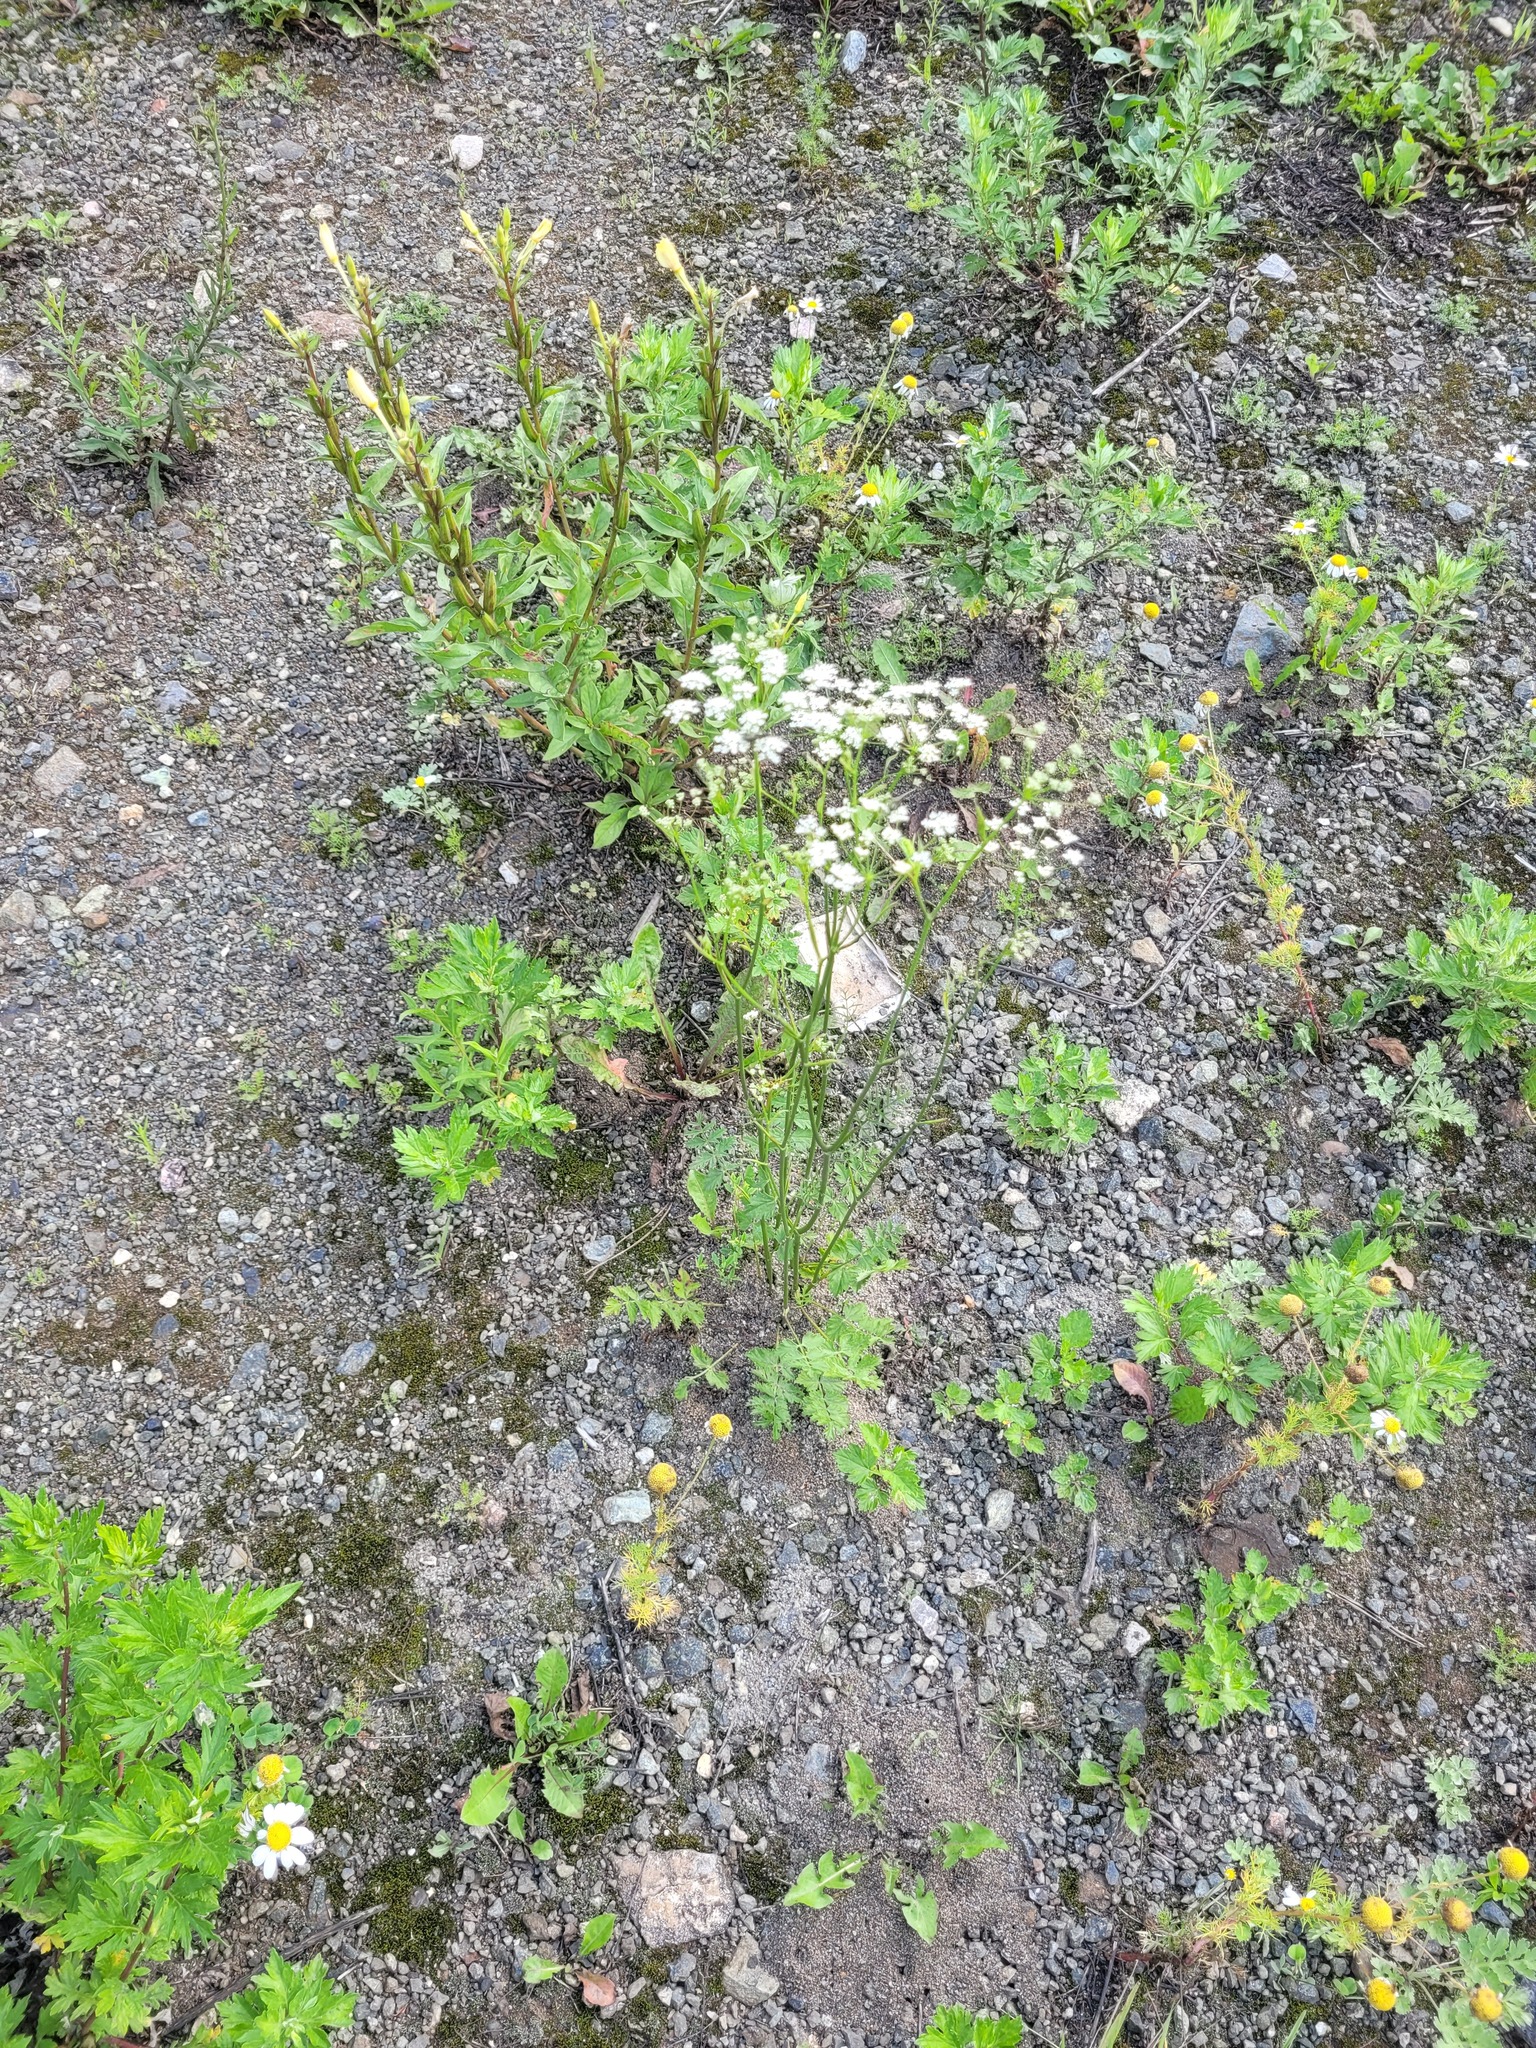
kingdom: Plantae
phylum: Tracheophyta
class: Magnoliopsida
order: Apiales
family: Apiaceae
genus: Pimpinella
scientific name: Pimpinella saxifraga
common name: Burnet-saxifrage
